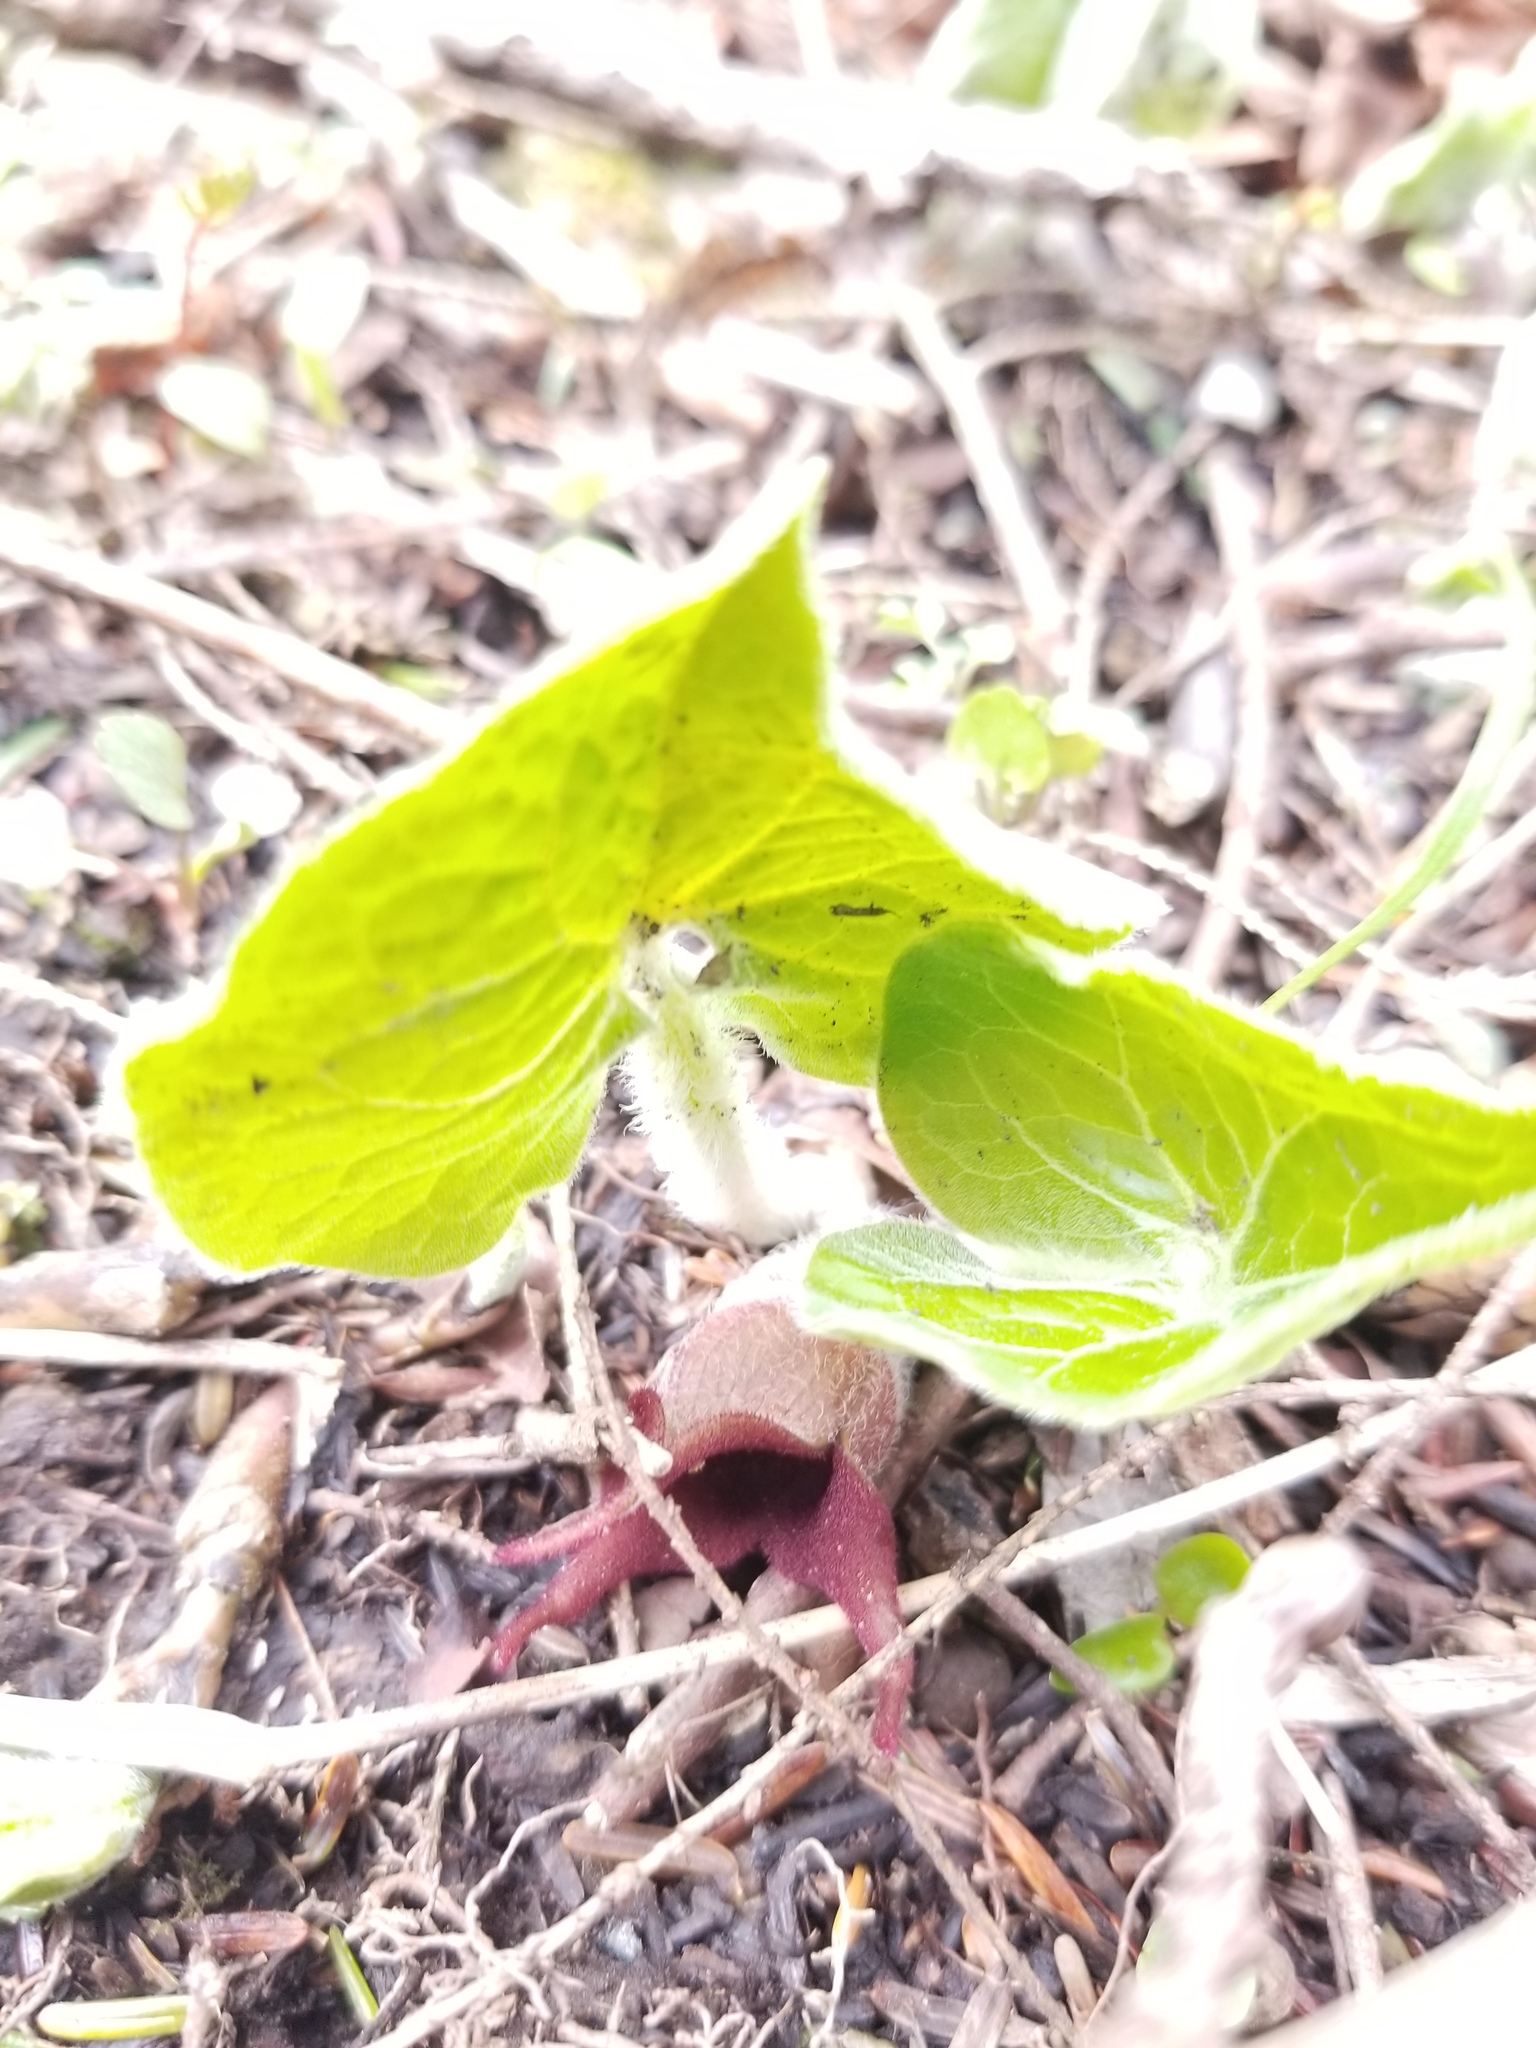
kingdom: Plantae
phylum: Tracheophyta
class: Magnoliopsida
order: Piperales
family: Aristolochiaceae
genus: Asarum
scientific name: Asarum canadense
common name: Wild ginger
